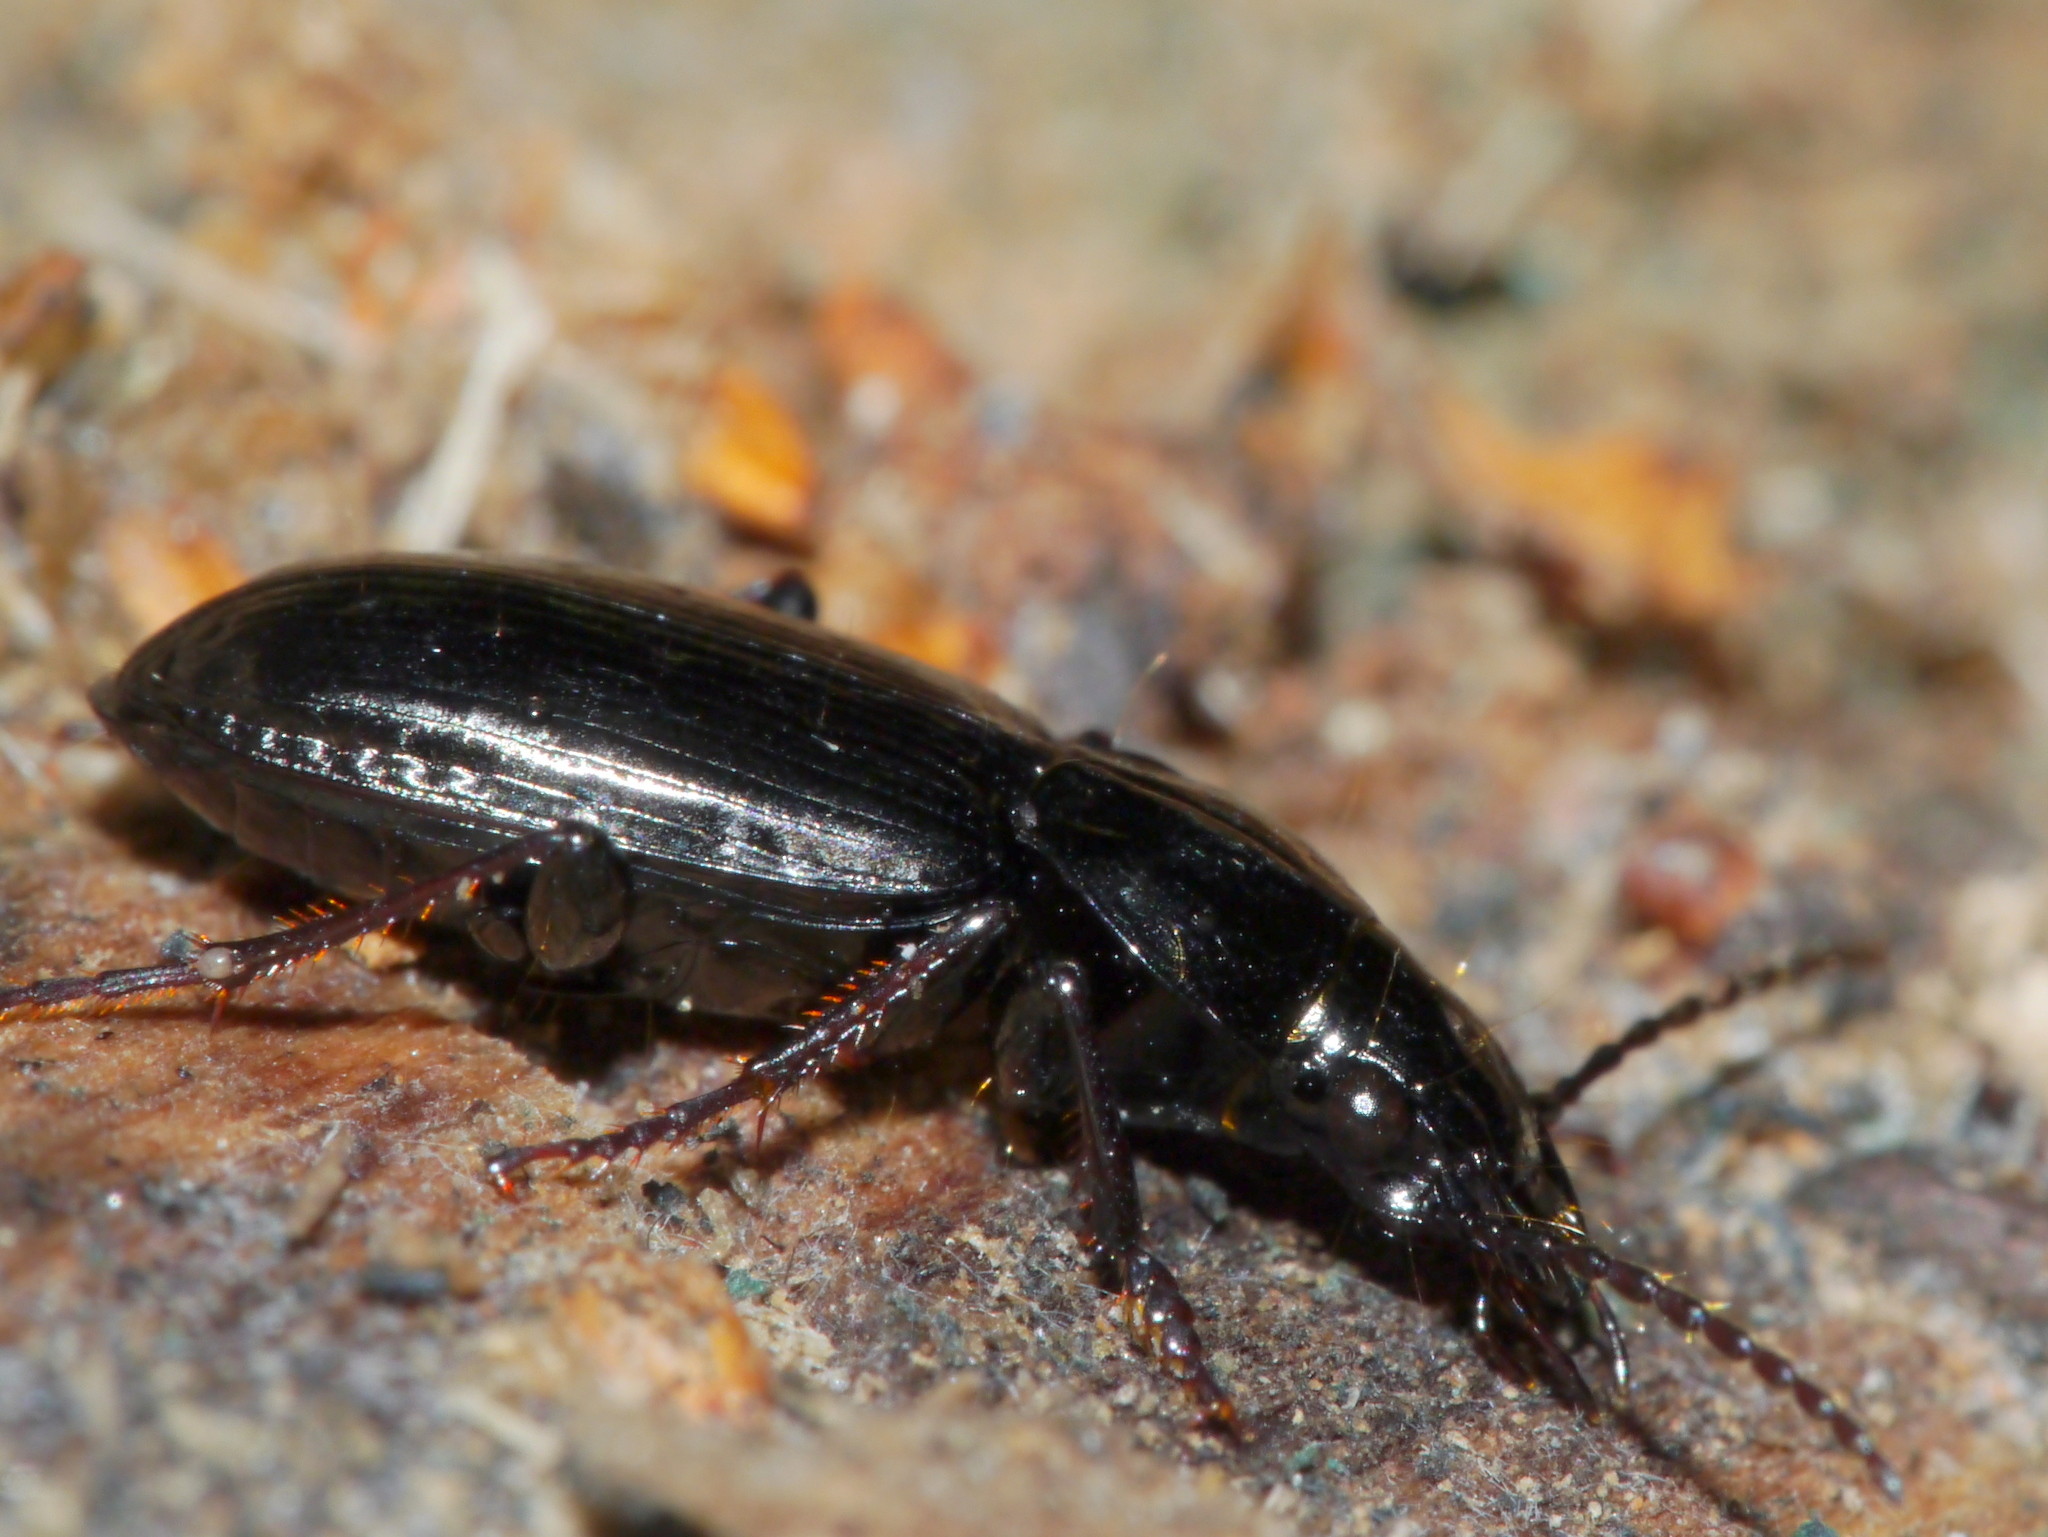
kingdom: Animalia
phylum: Arthropoda
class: Insecta
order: Coleoptera
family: Carabidae
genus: Pterostichus
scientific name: Pterostichus adstrictus
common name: Upland blackclock
